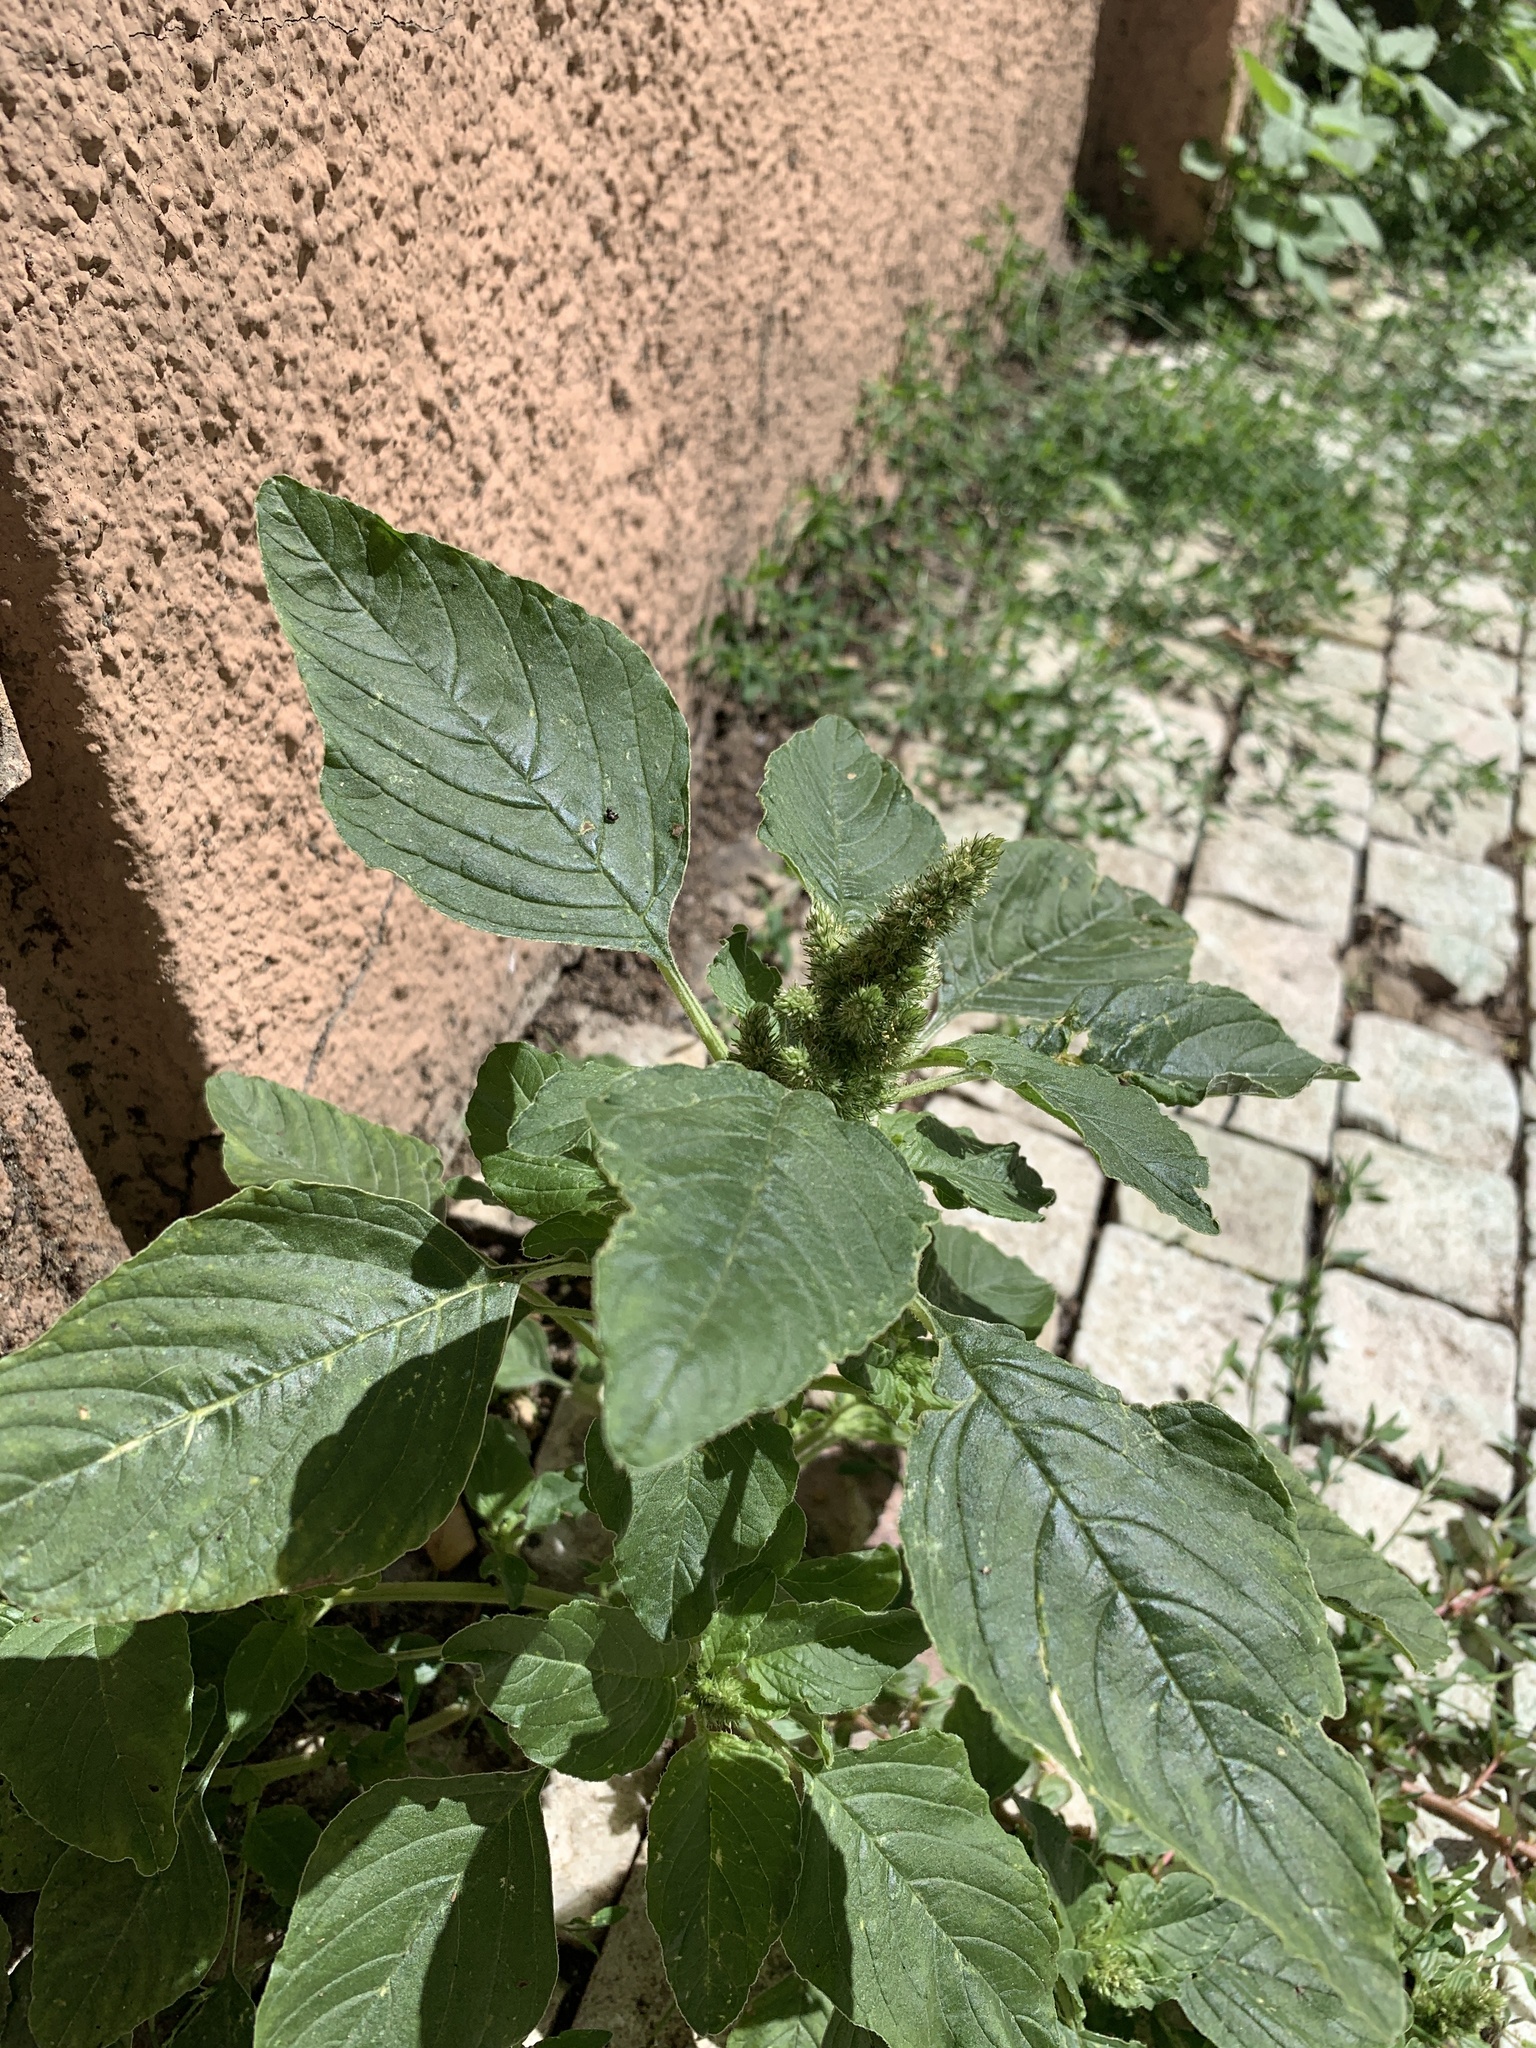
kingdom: Plantae
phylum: Tracheophyta
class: Magnoliopsida
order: Caryophyllales
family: Amaranthaceae
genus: Amaranthus
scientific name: Amaranthus retroflexus
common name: Redroot amaranth
